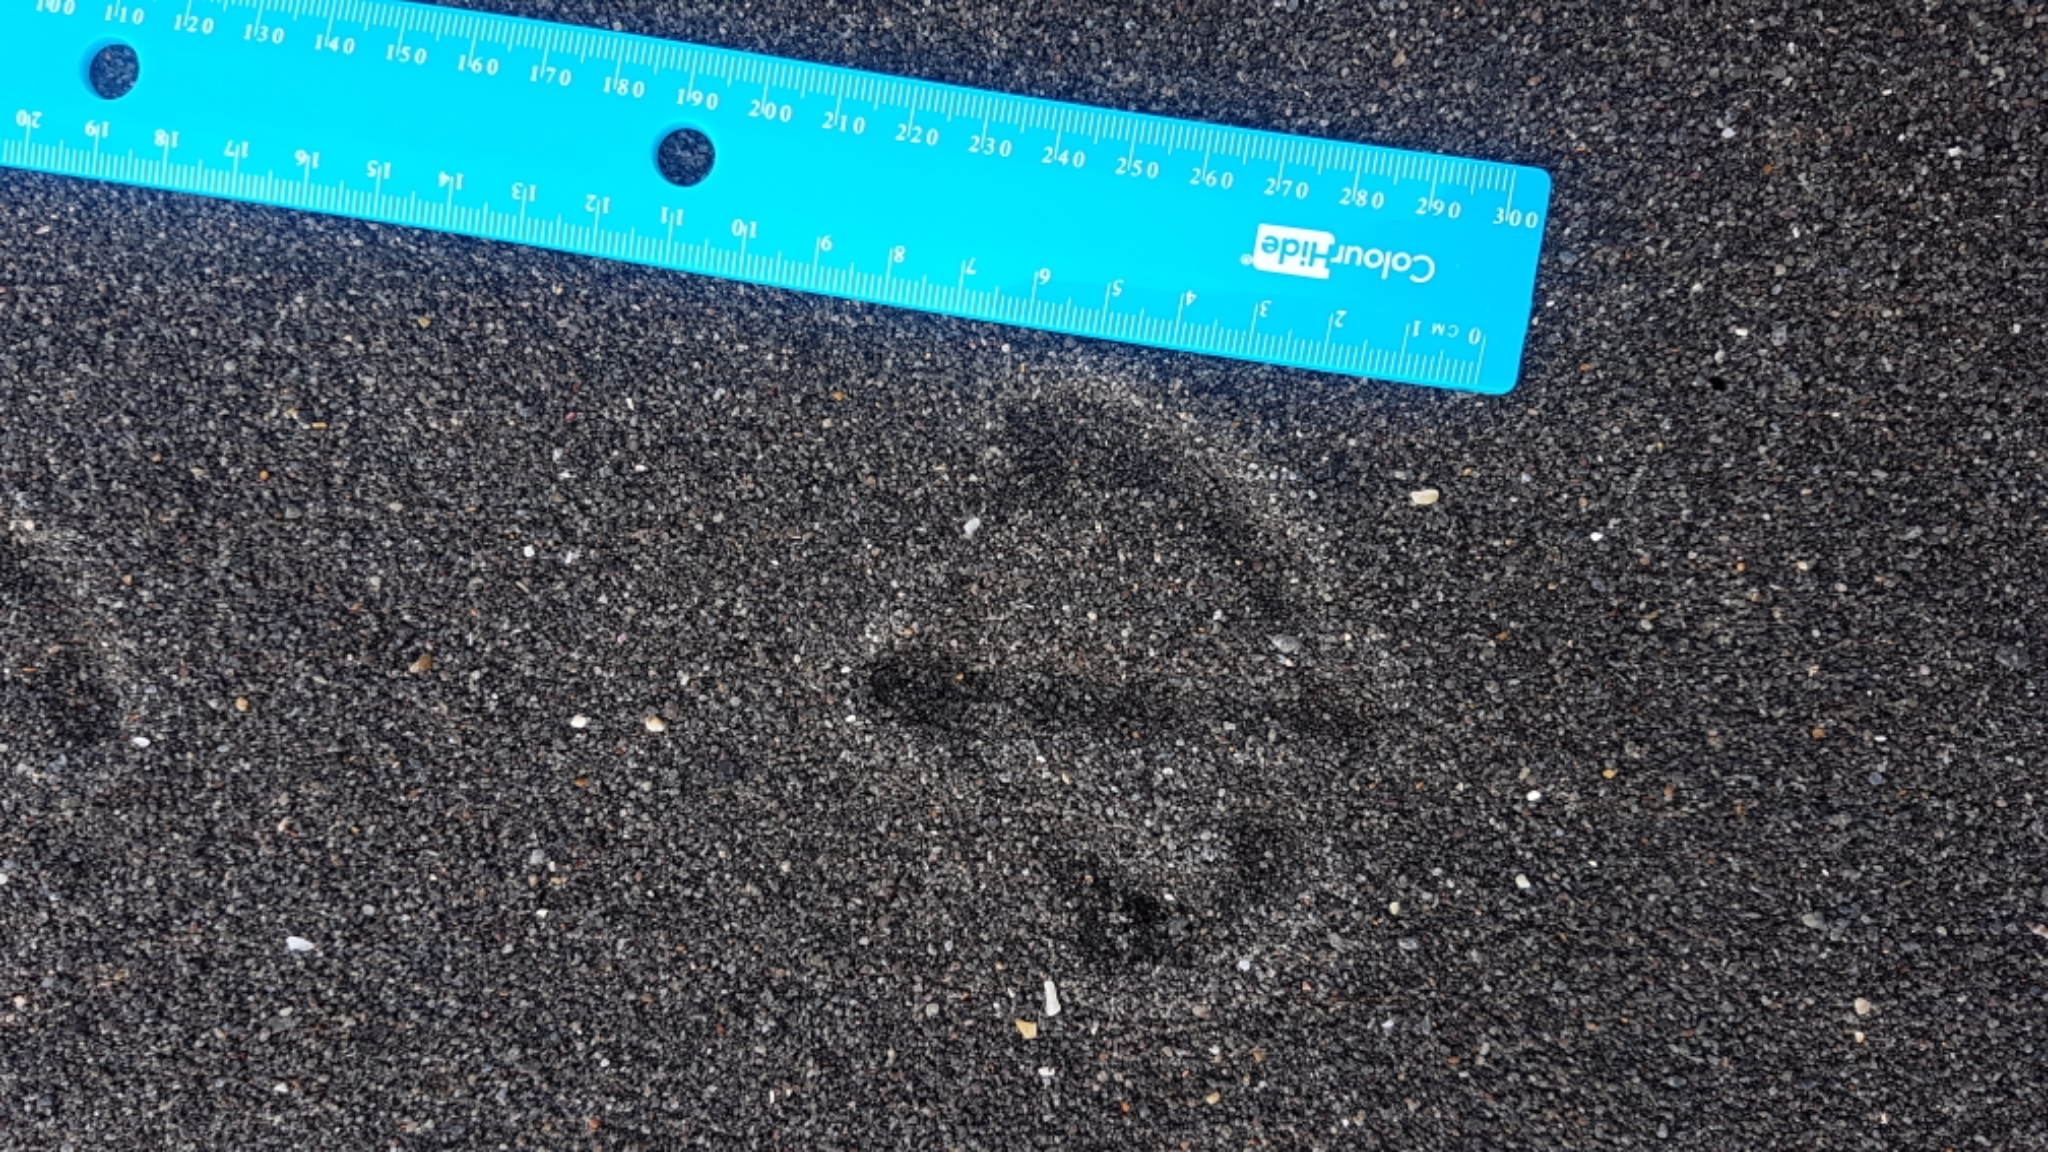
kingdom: Animalia
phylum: Chordata
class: Aves
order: Charadriiformes
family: Laridae
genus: Larus
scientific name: Larus dominicanus
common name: Kelp gull
